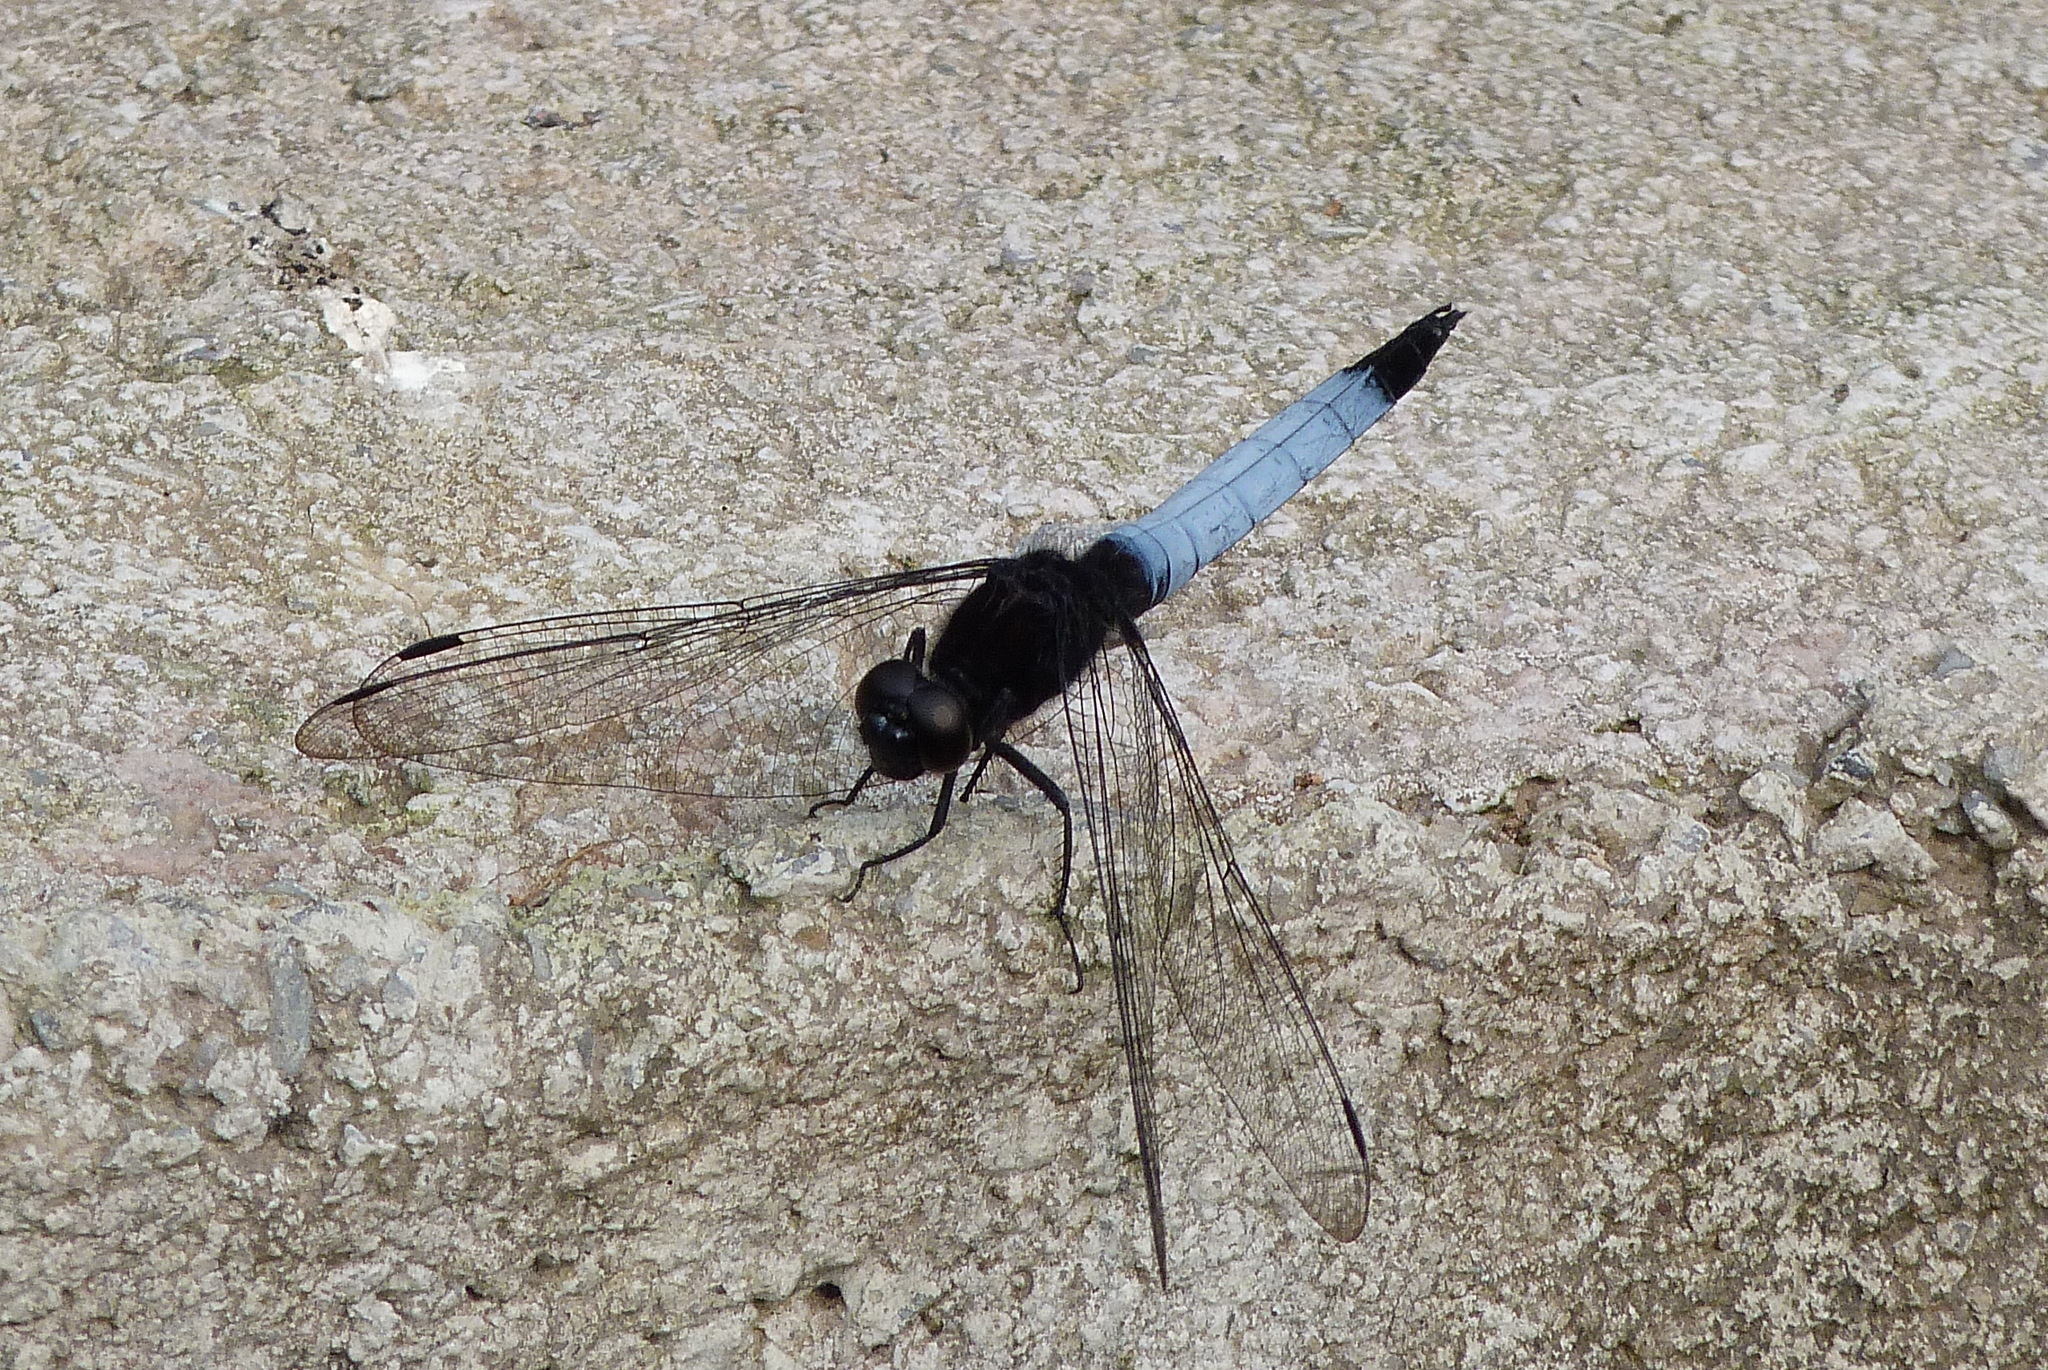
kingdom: Animalia
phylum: Arthropoda
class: Insecta
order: Odonata
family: Libellulidae
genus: Orthetrum
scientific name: Orthetrum triangulare
